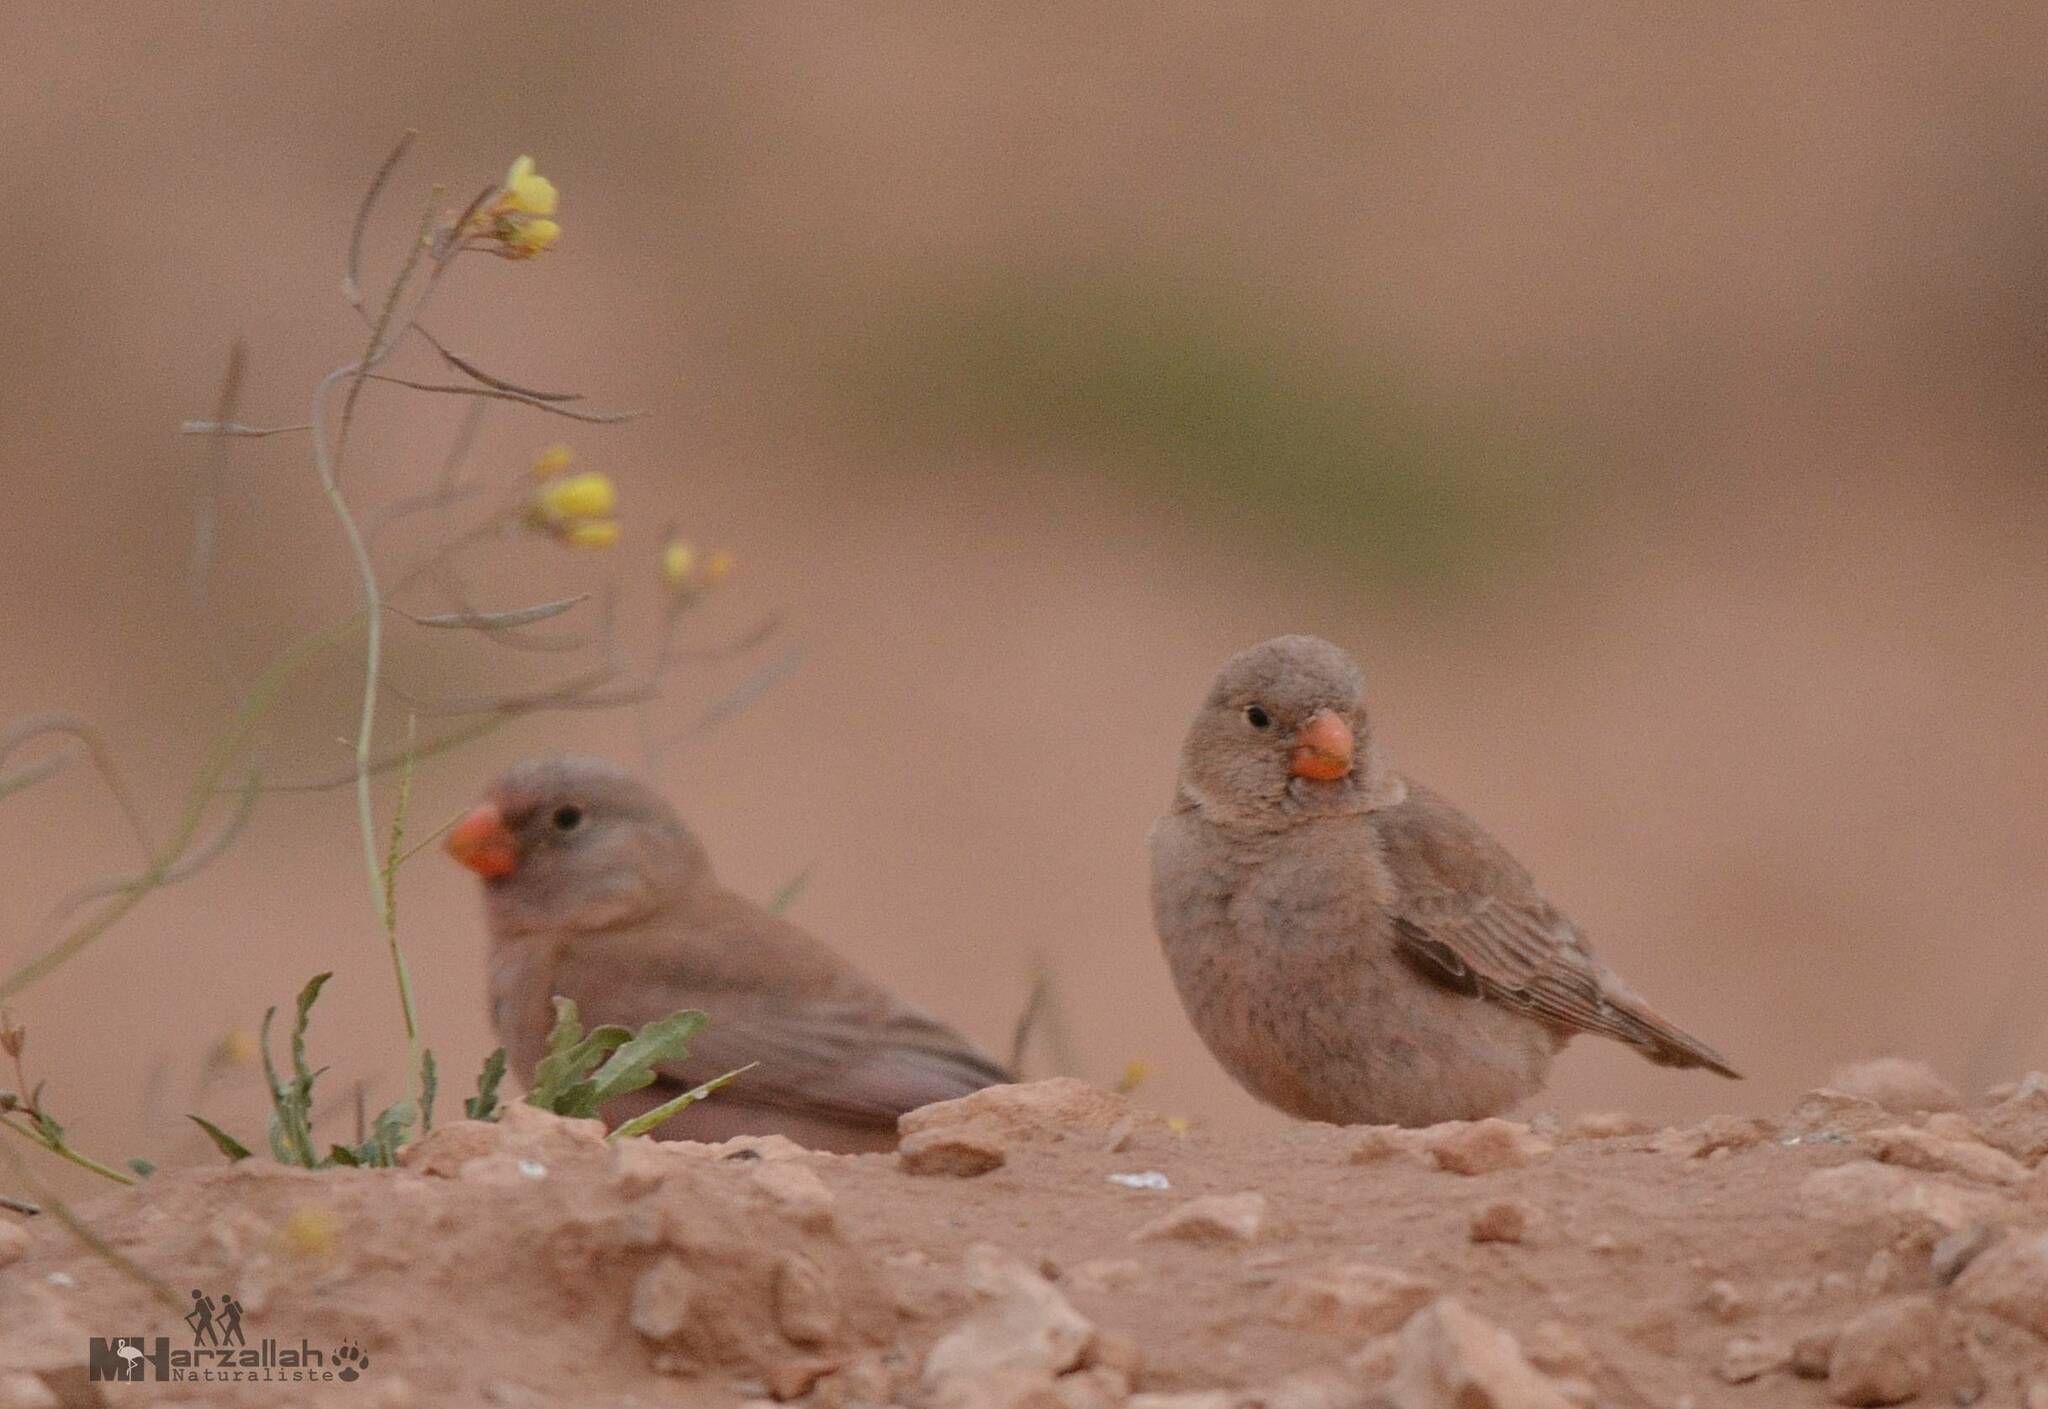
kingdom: Animalia
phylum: Chordata
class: Aves
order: Passeriformes
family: Fringillidae
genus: Bucanetes
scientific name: Bucanetes githagineus
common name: Trumpeter finch
